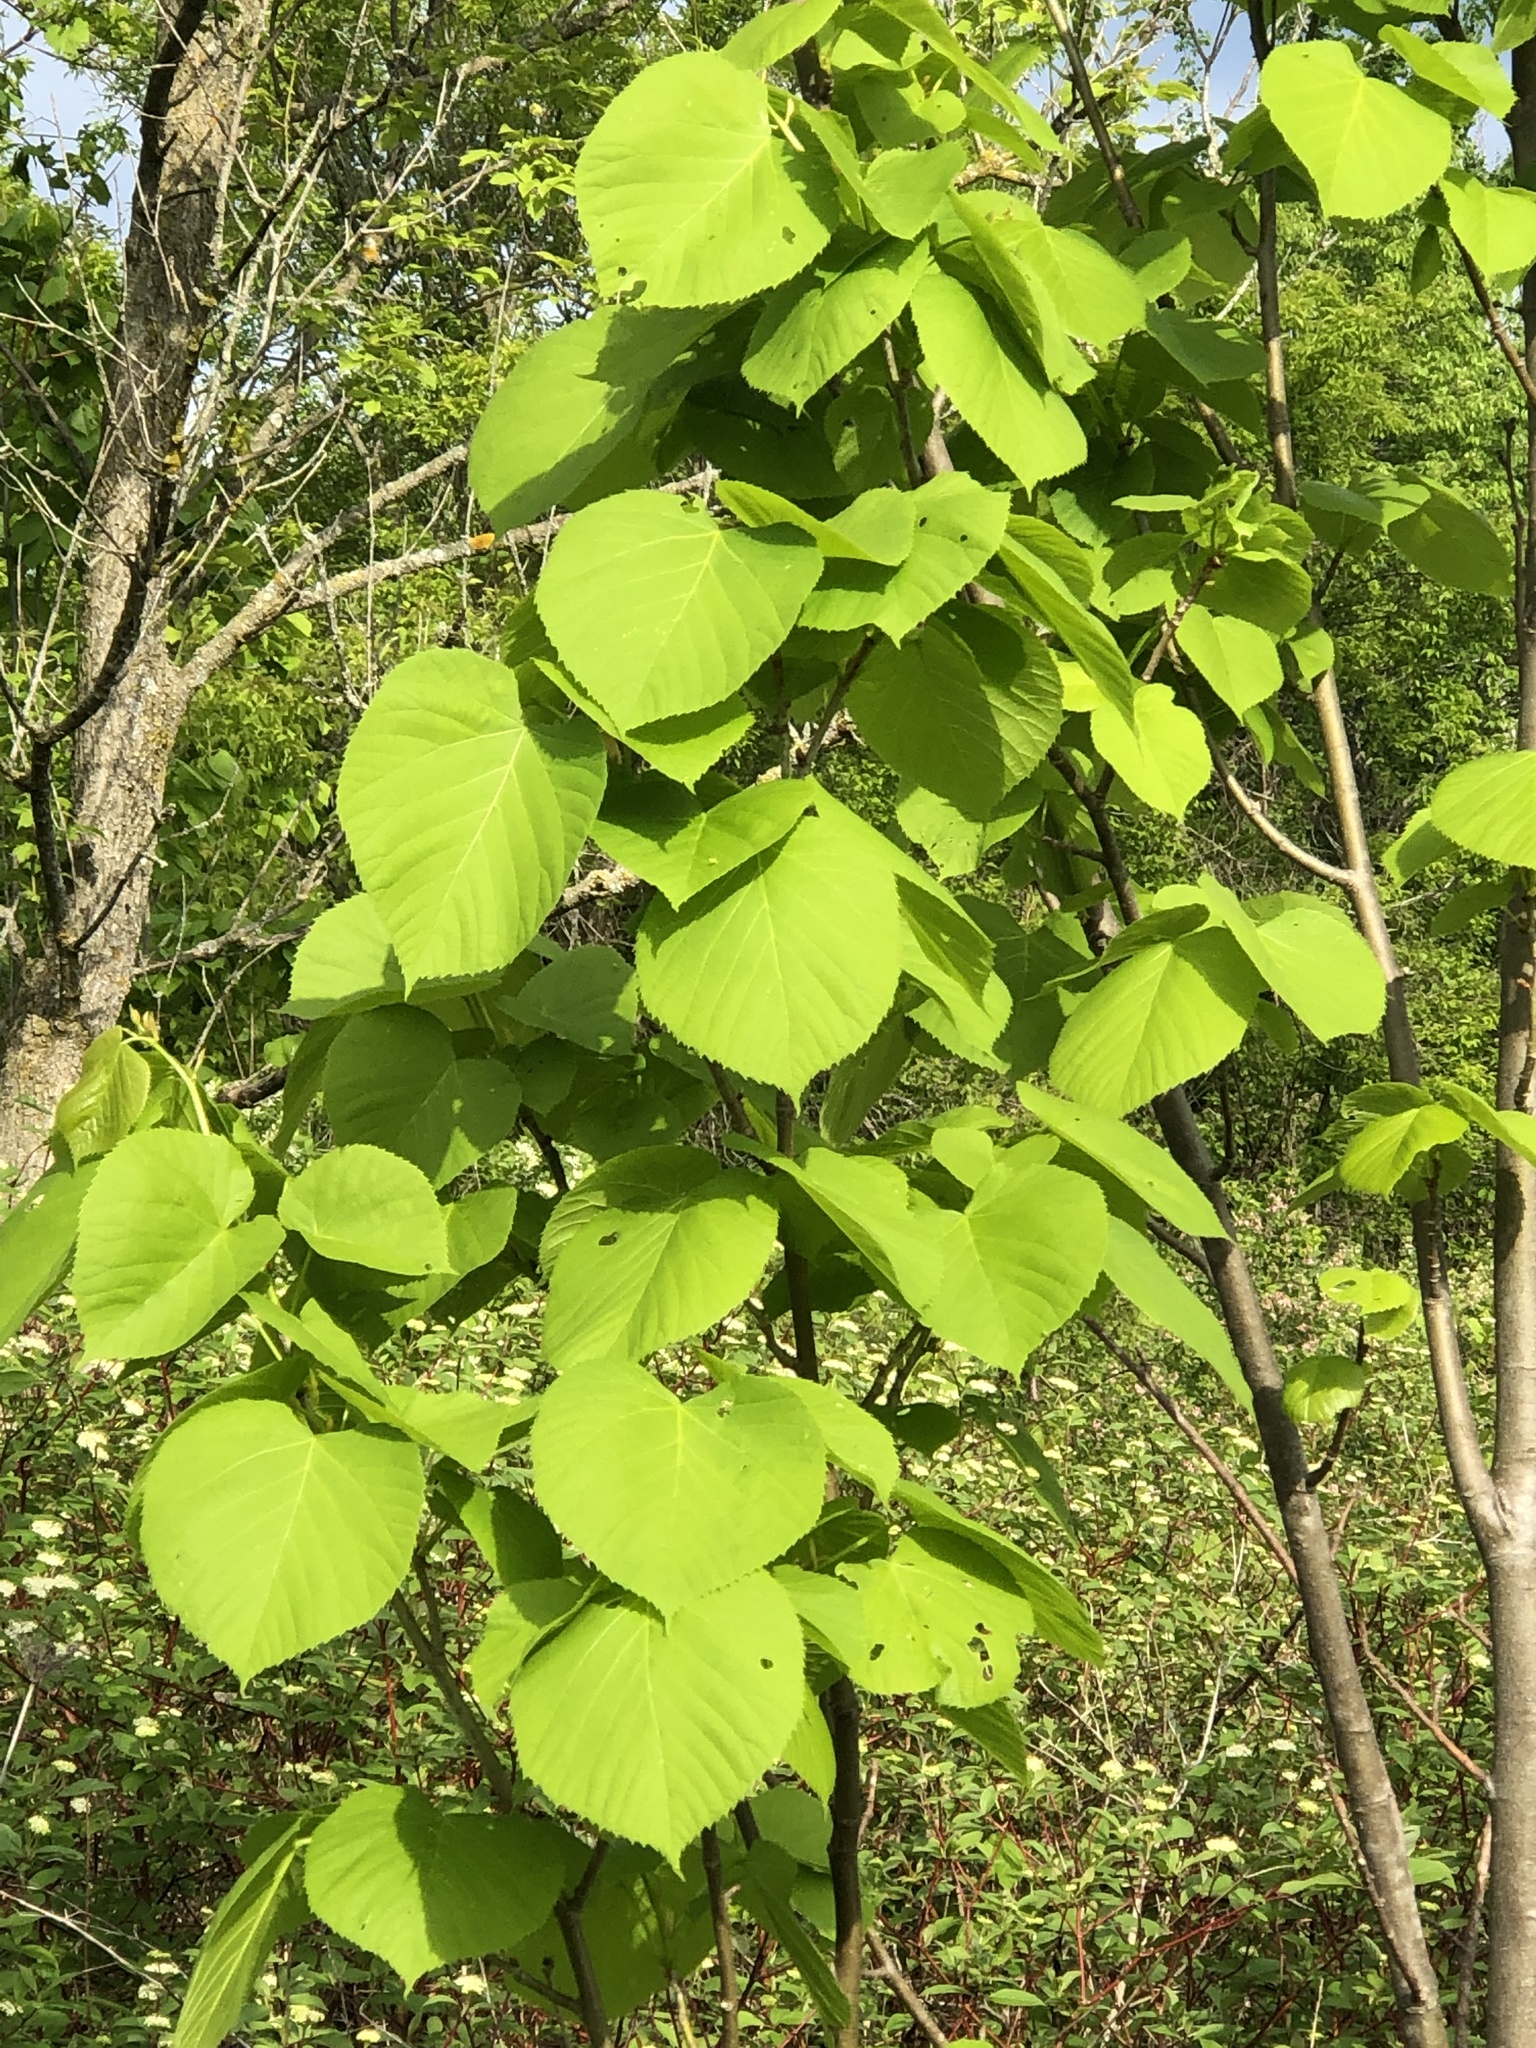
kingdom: Plantae
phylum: Tracheophyta
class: Magnoliopsida
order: Malvales
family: Malvaceae
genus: Tilia
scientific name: Tilia americana
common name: Basswood
